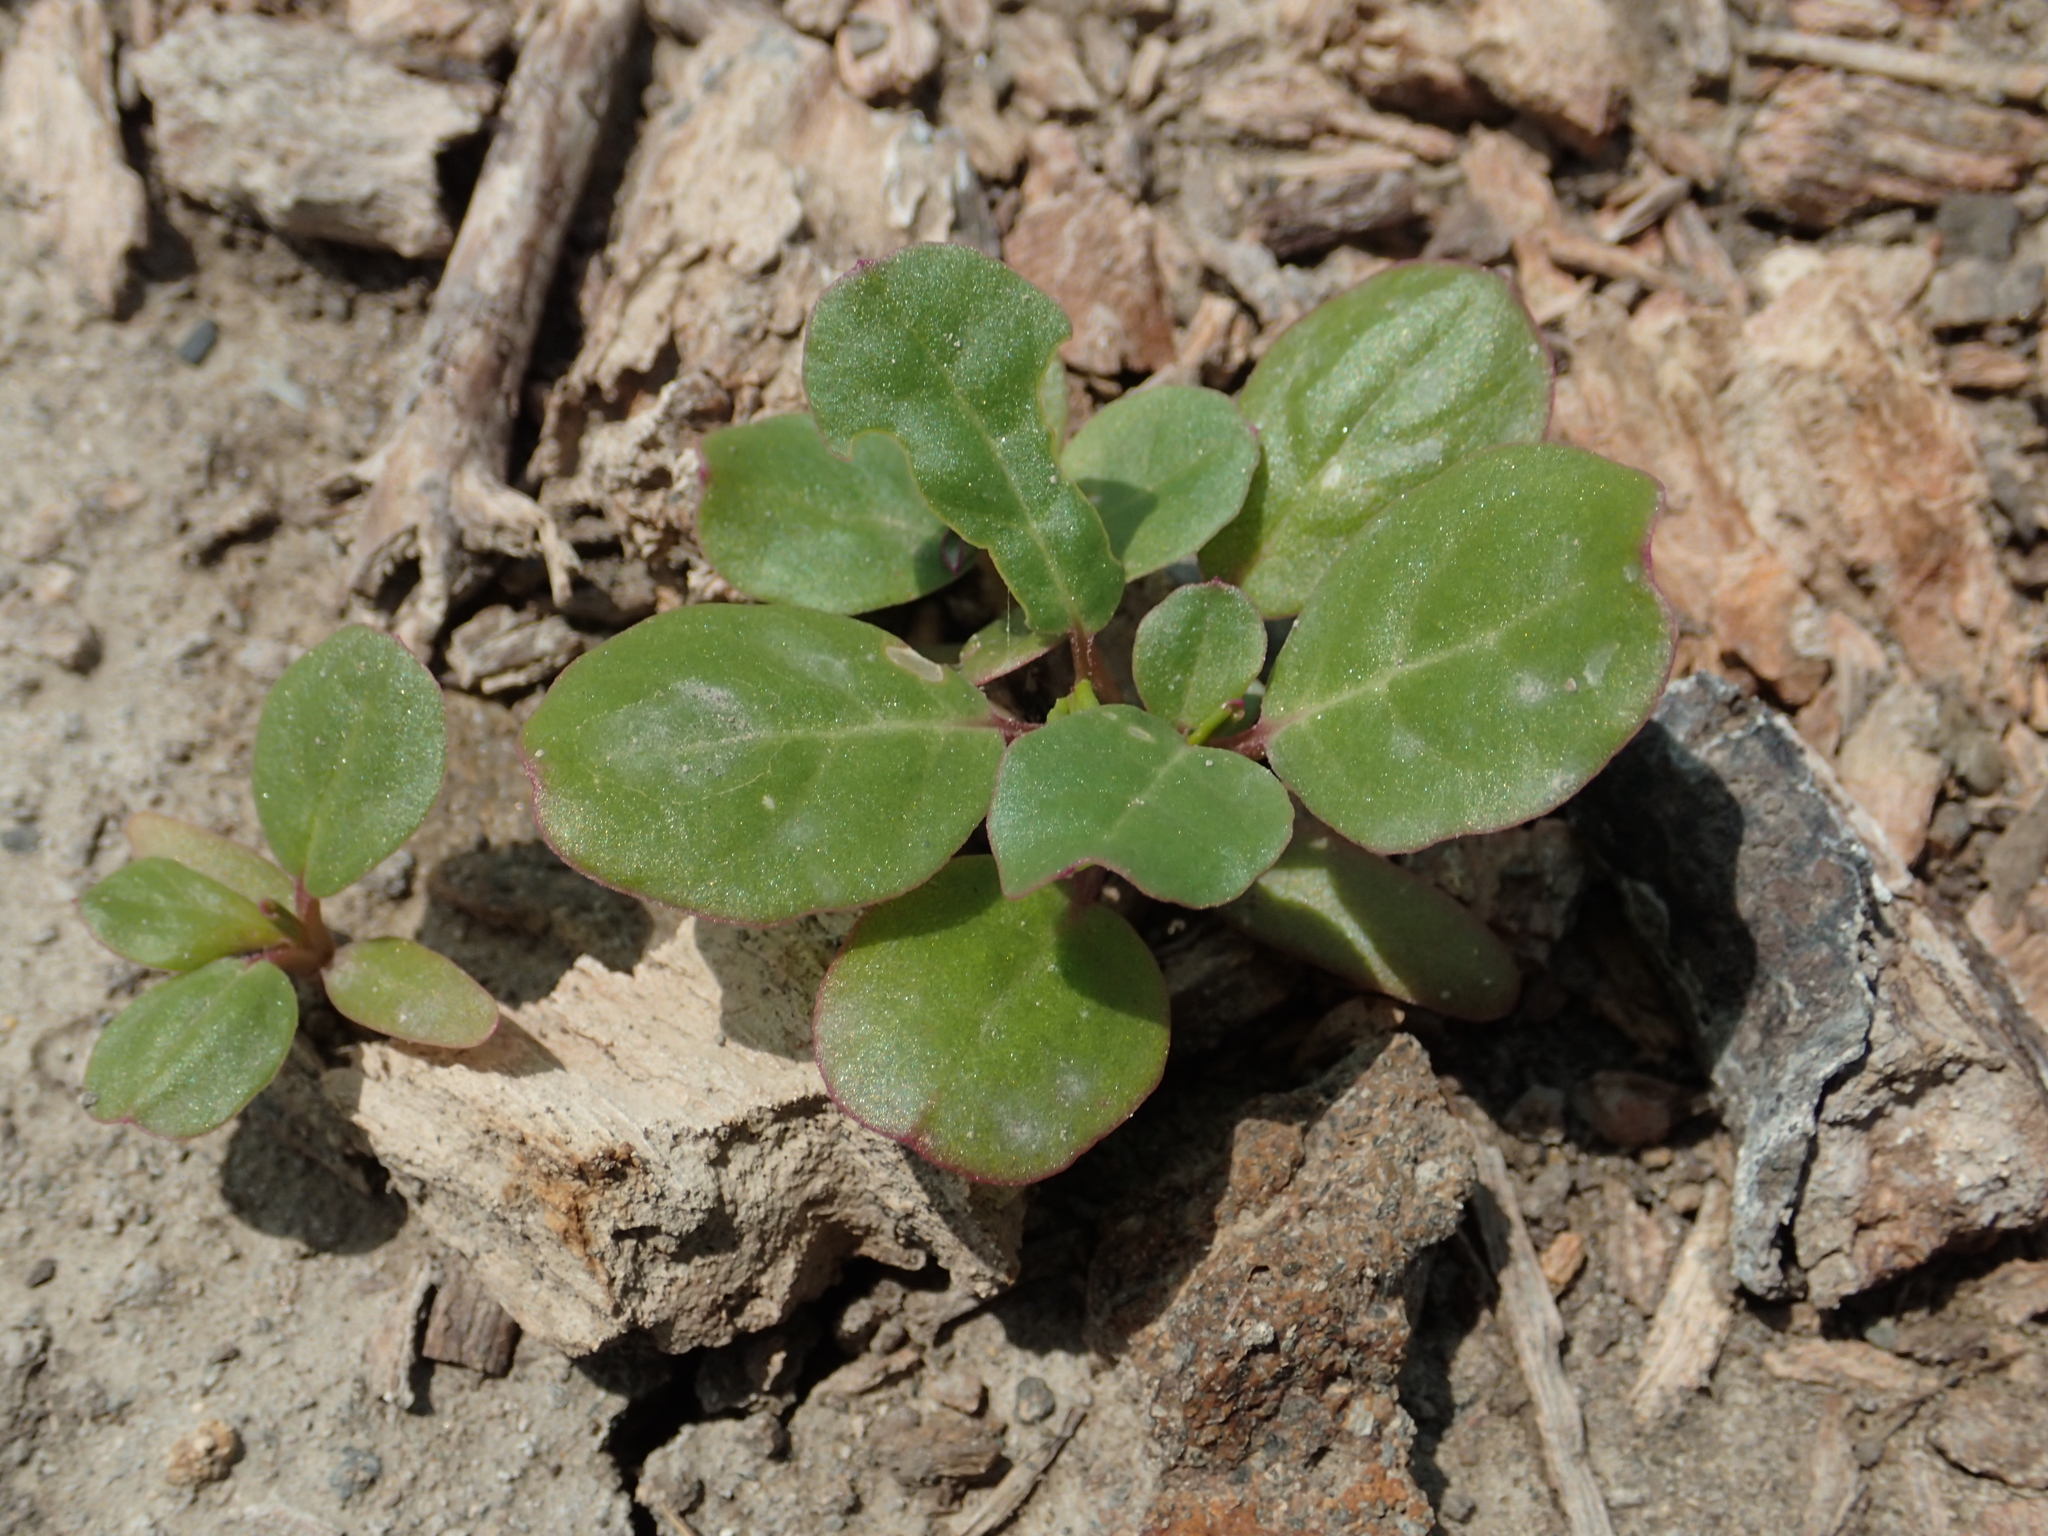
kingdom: Plantae
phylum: Tracheophyta
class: Magnoliopsida
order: Caryophyllales
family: Aizoaceae
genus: Trianthema
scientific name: Trianthema portulacastrum
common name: Desert horsepurslane
